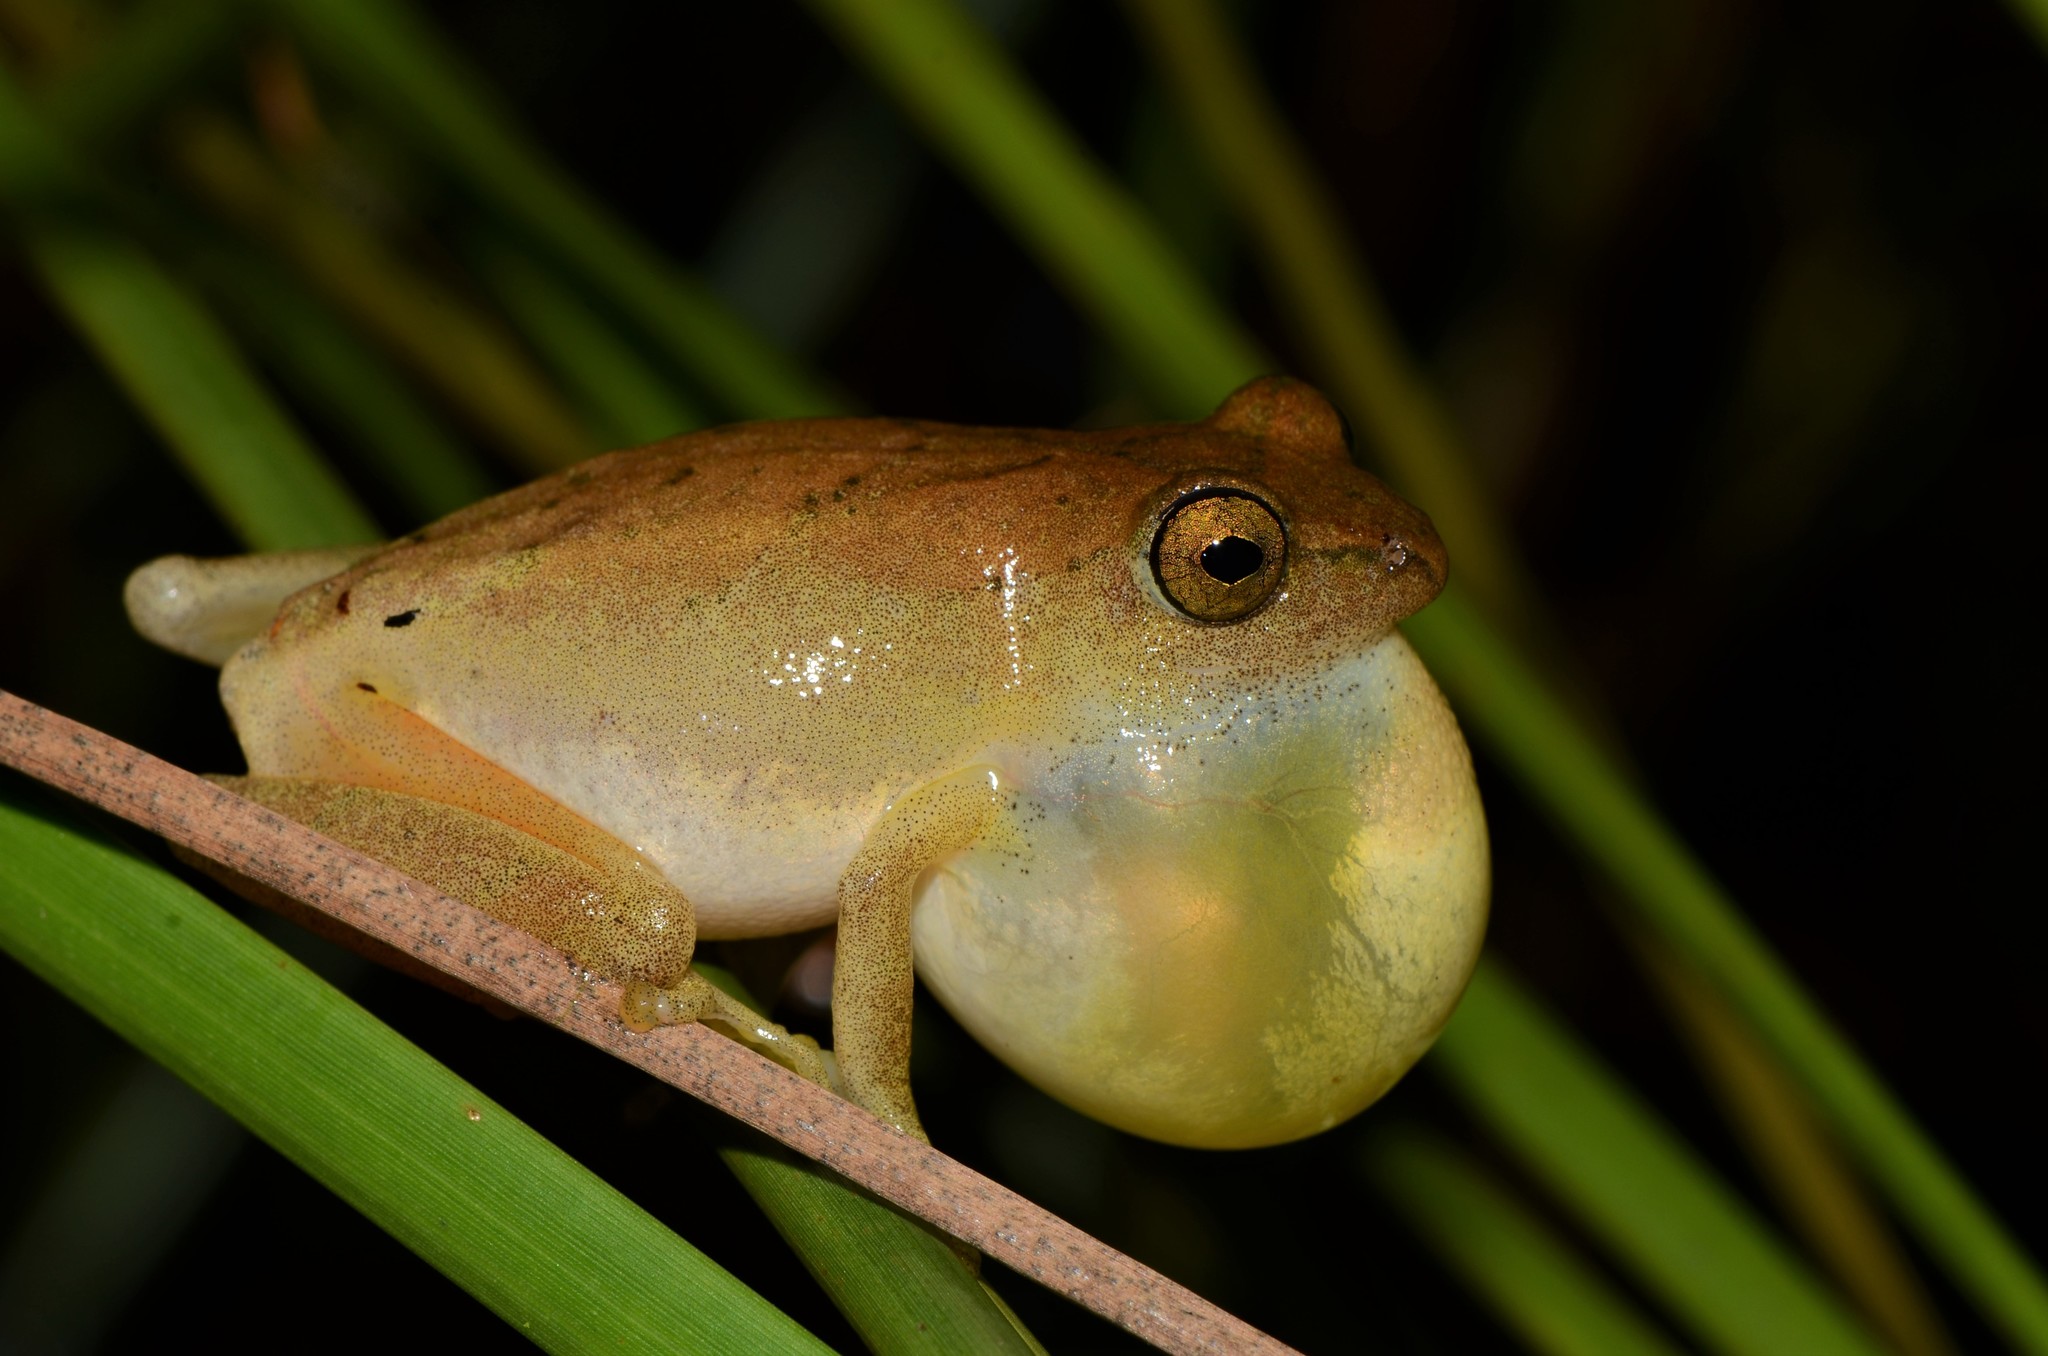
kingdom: Animalia
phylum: Chordata
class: Amphibia
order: Anura
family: Hyperoliidae
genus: Hyperolius
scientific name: Hyperolius tuberilinguis
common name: Tinker reed frog
